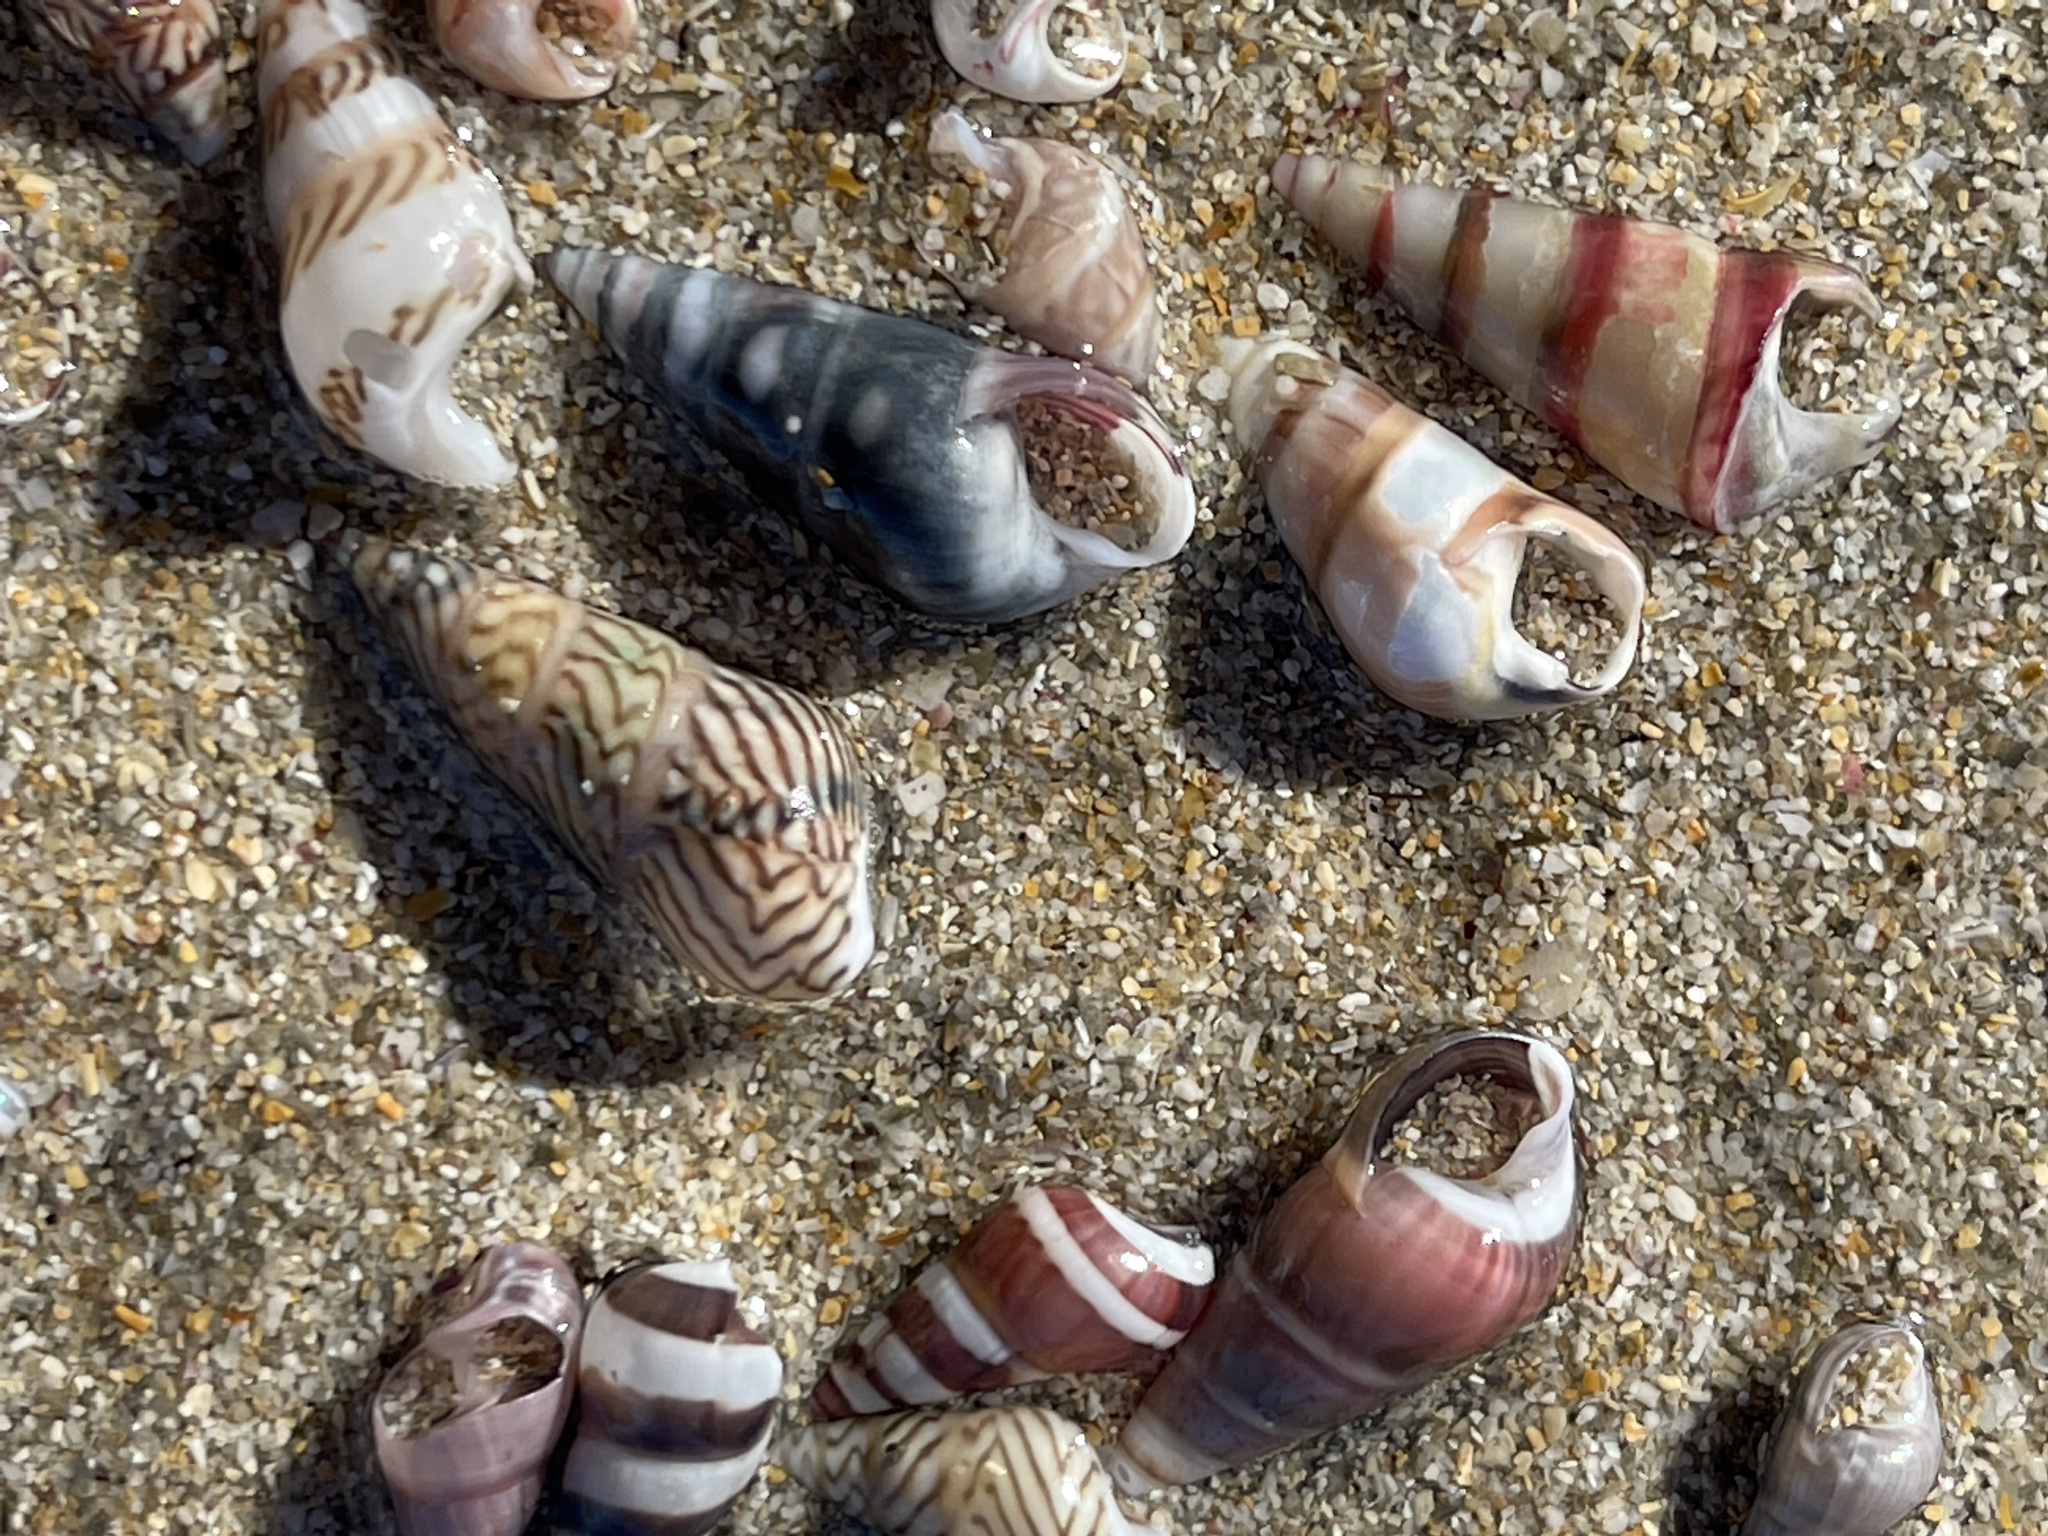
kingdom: Animalia
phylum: Mollusca
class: Gastropoda
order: Trochida
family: Trochidae
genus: Bankivia
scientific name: Bankivia fasciata
